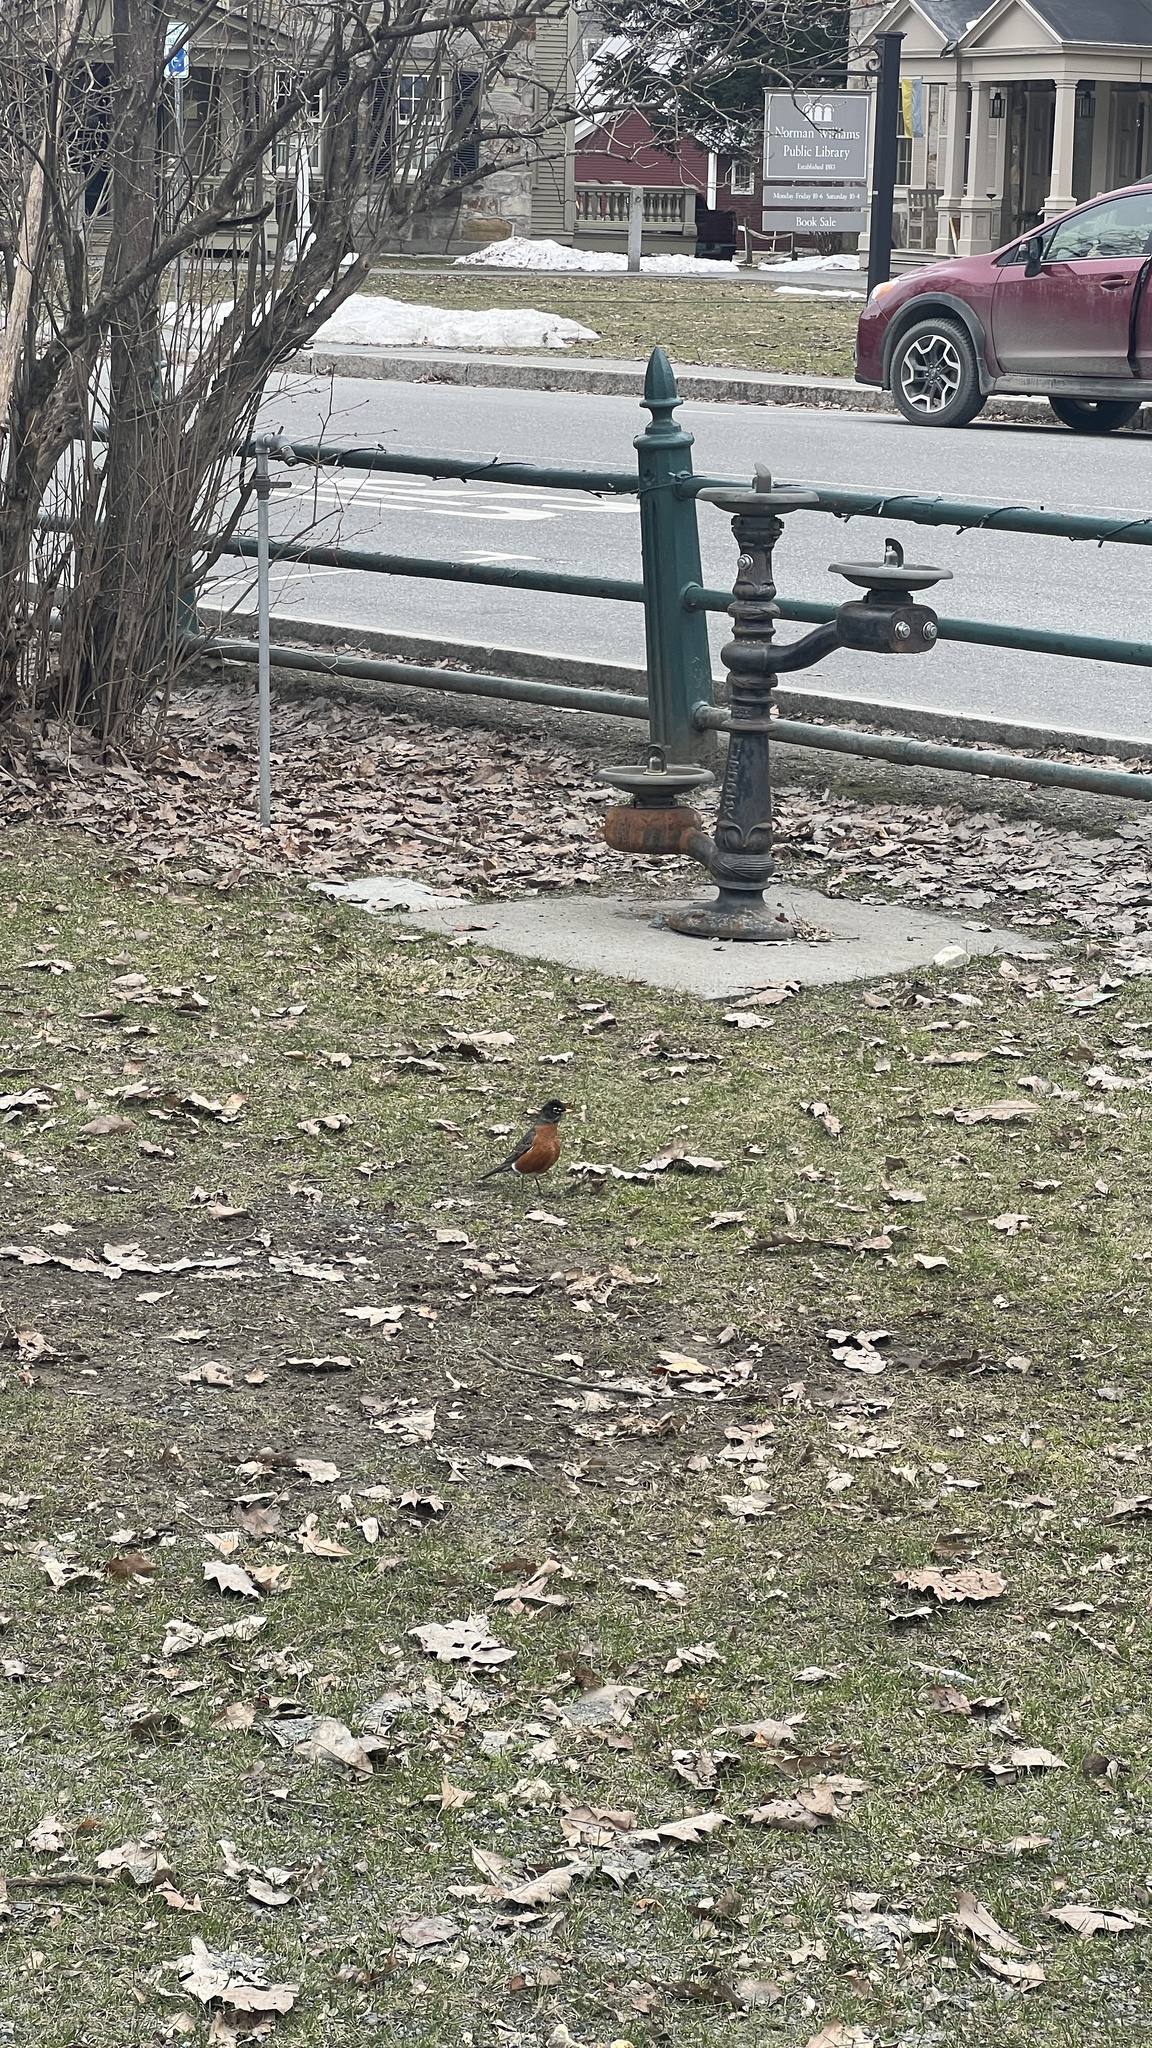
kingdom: Animalia
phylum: Chordata
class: Aves
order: Passeriformes
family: Turdidae
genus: Turdus
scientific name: Turdus migratorius
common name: American robin
